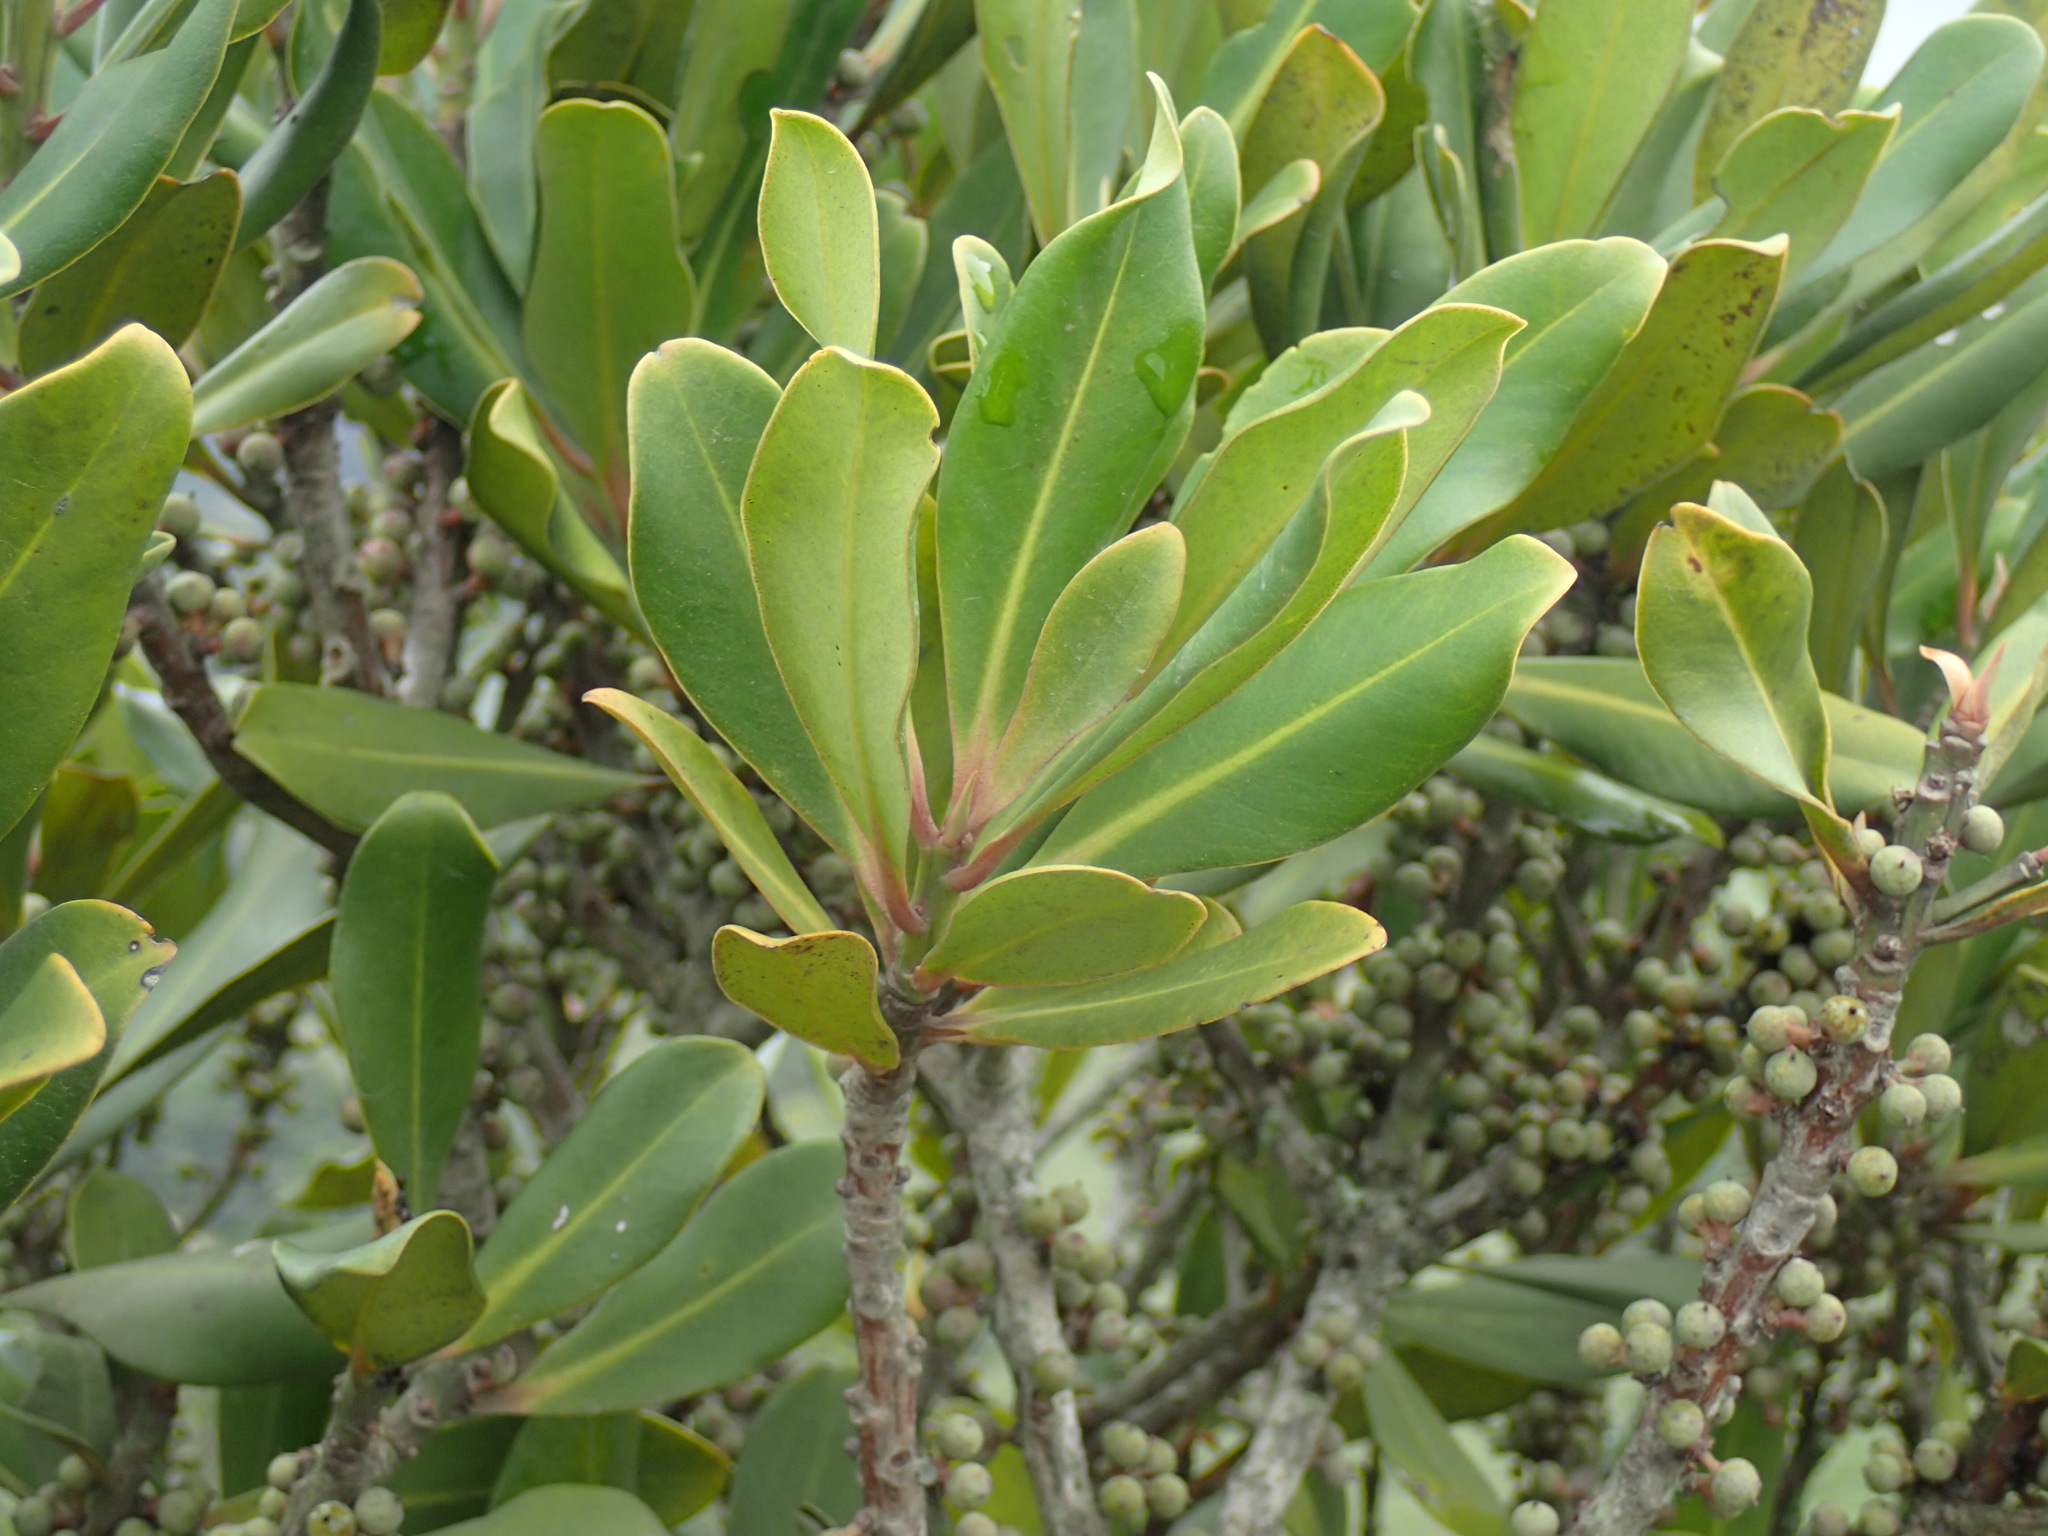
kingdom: Plantae
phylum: Tracheophyta
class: Magnoliopsida
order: Ericales
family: Primulaceae
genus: Myrsine
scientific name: Myrsine melanophloeos
